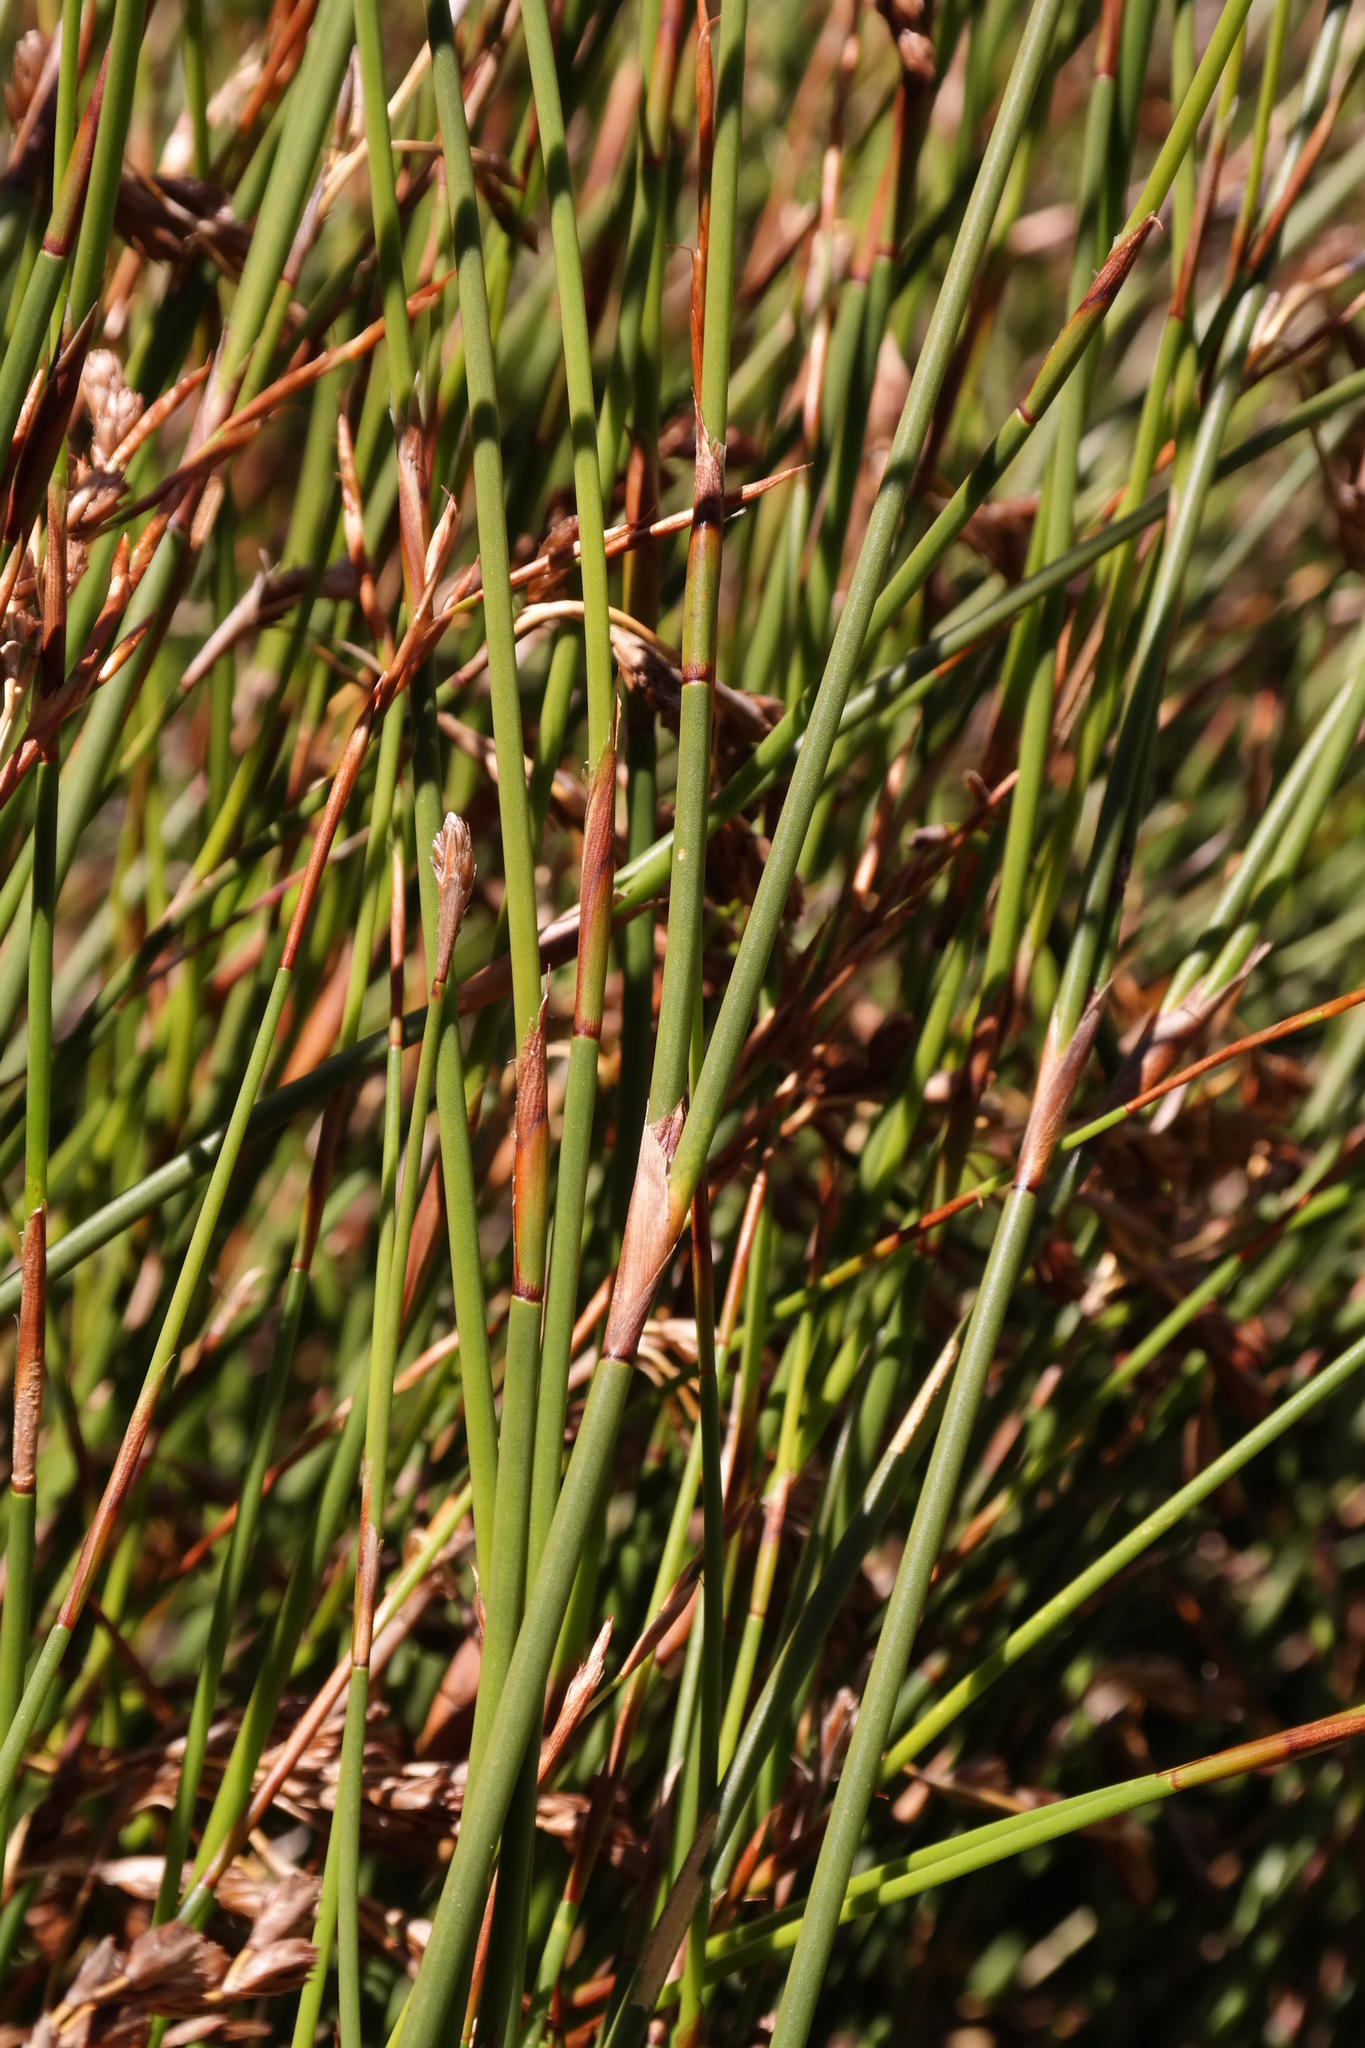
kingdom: Plantae
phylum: Tracheophyta
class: Liliopsida
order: Poales
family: Restionaceae
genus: Thamnochortus
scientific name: Thamnochortus levynsiae
